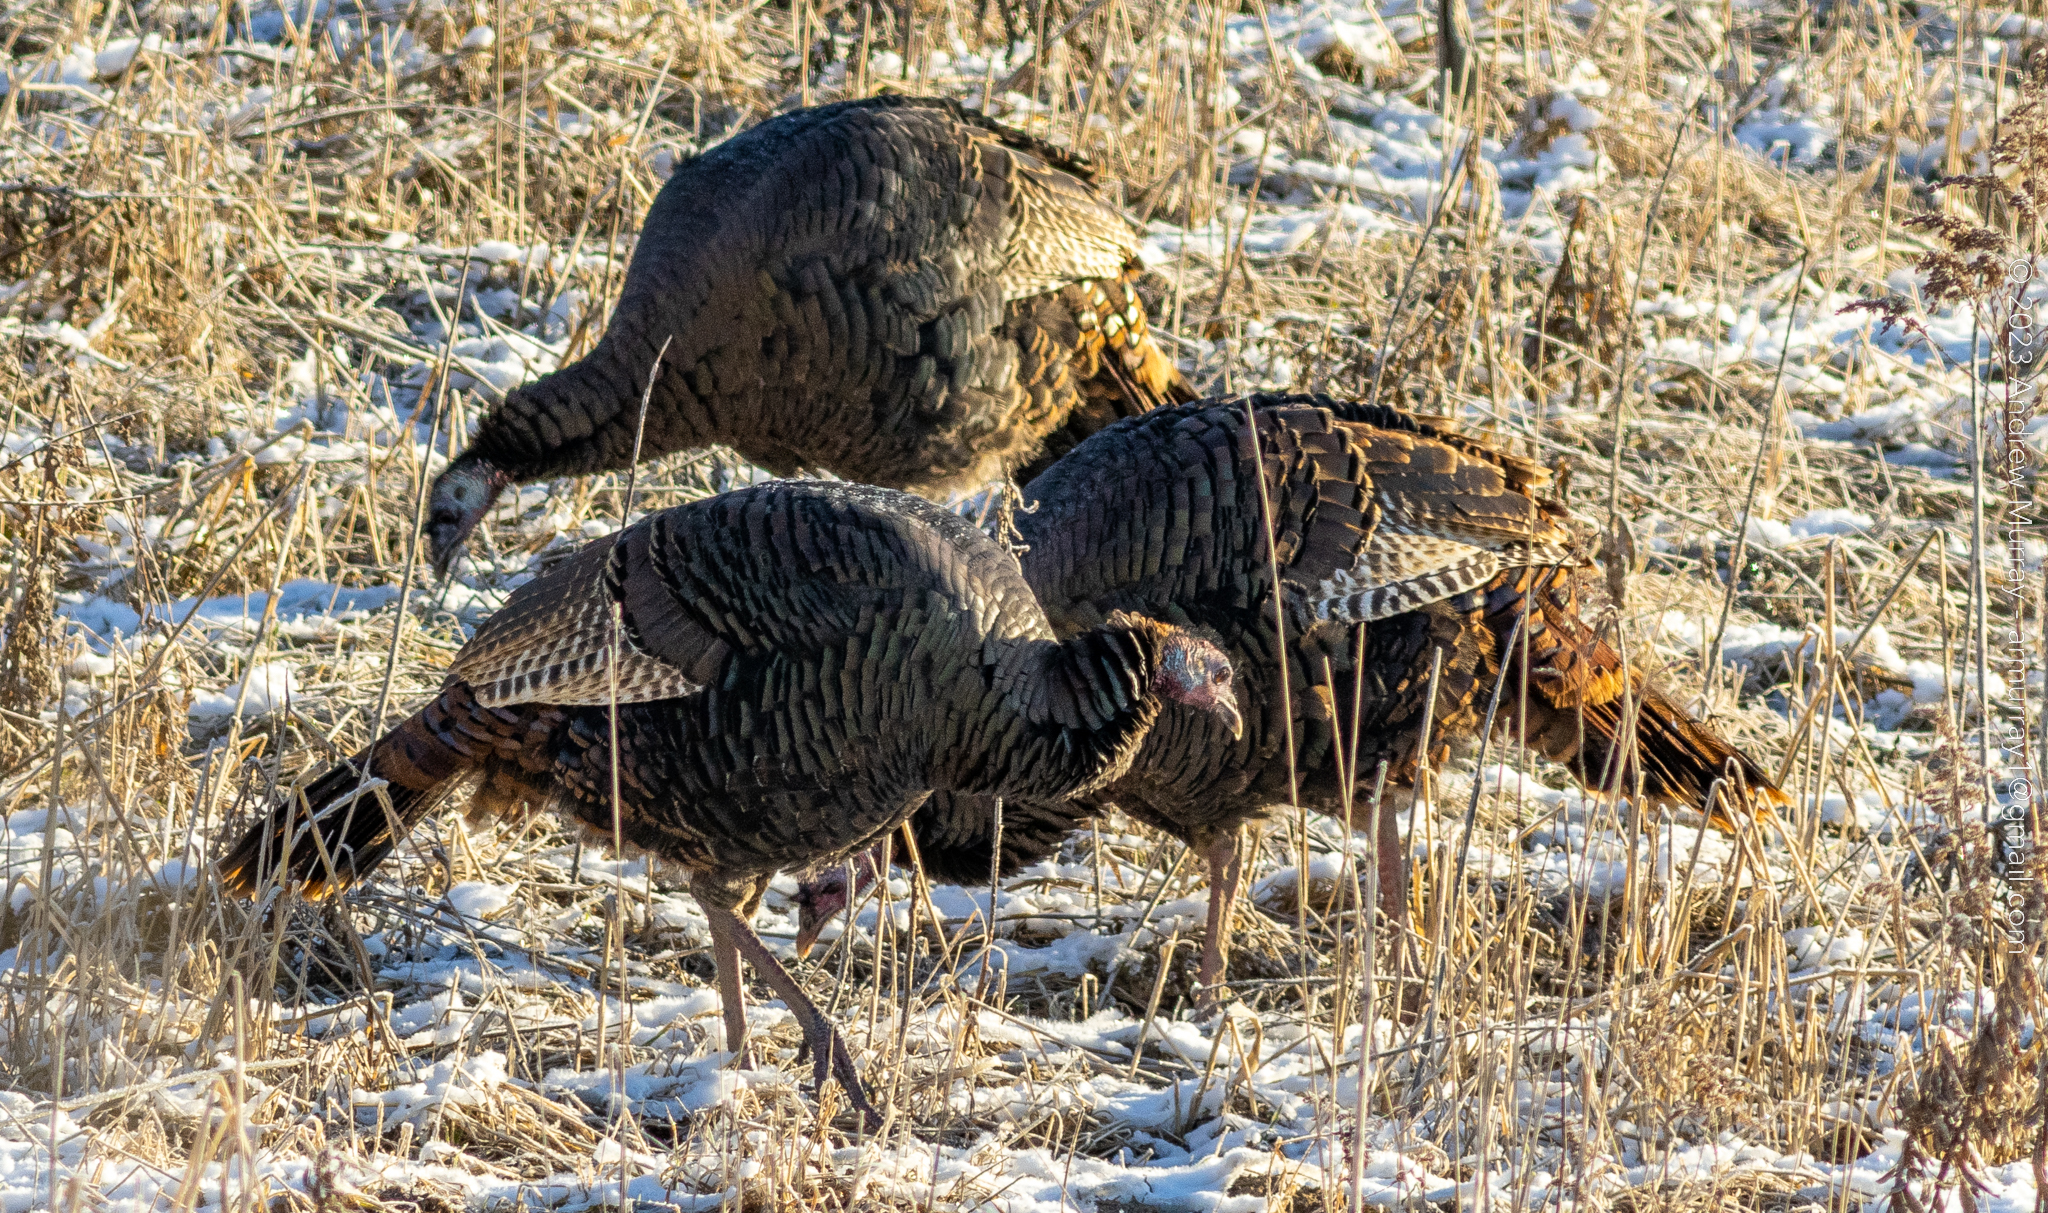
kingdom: Animalia
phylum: Chordata
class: Aves
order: Galliformes
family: Phasianidae
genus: Meleagris
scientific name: Meleagris gallopavo
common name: Wild turkey
